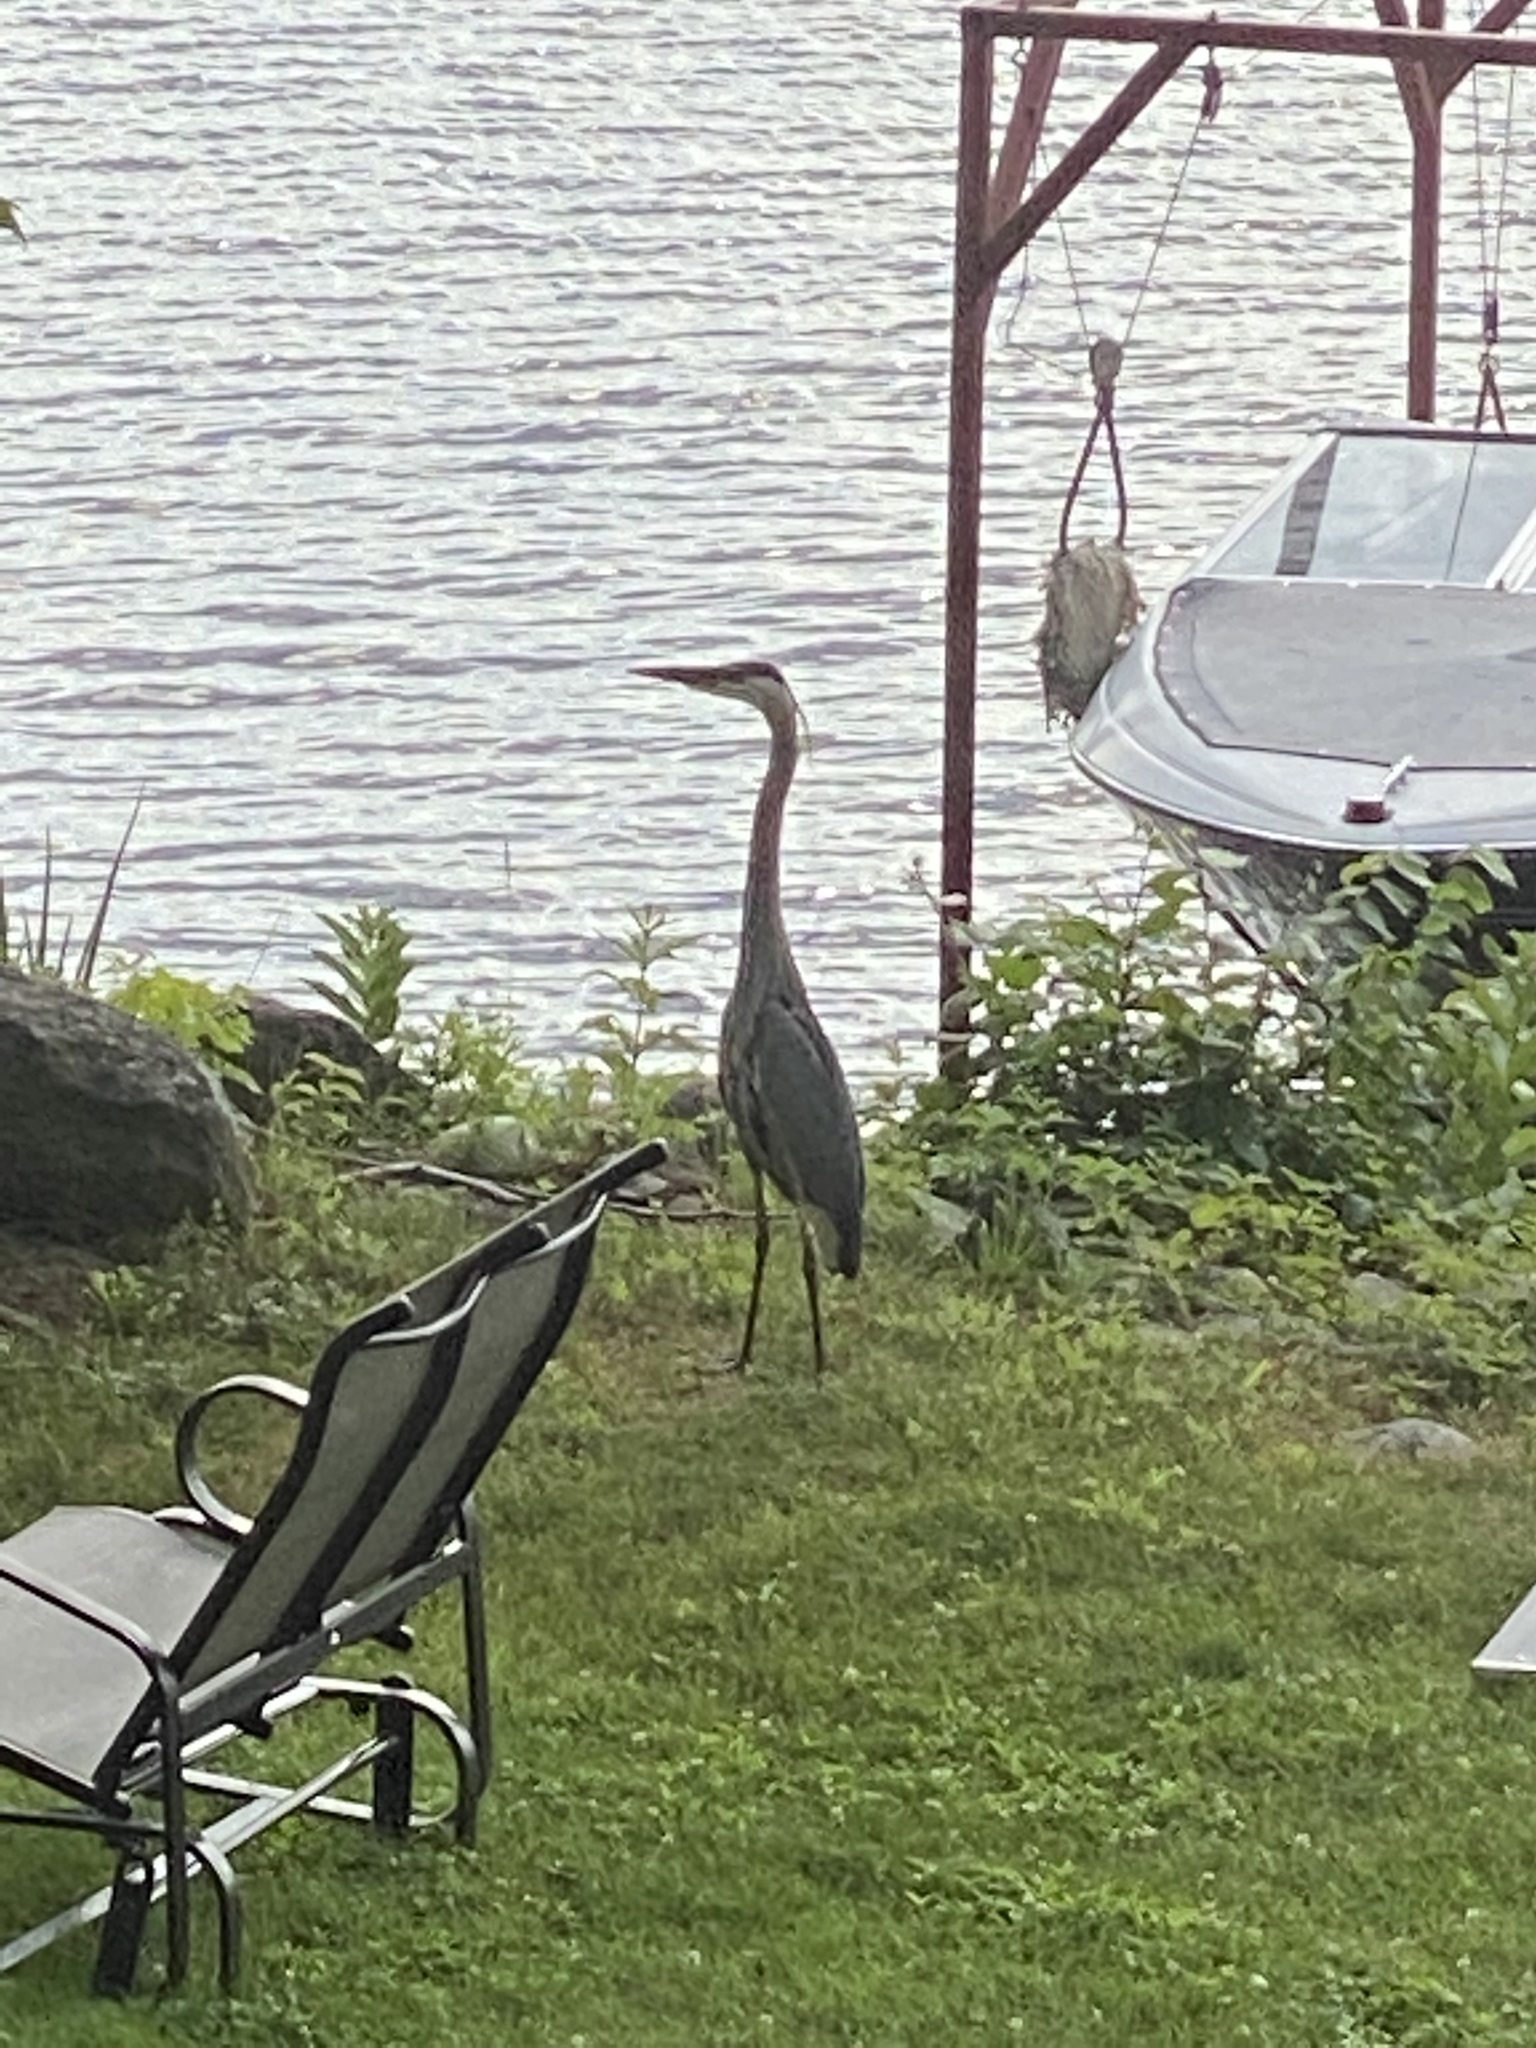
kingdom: Animalia
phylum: Chordata
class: Aves
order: Pelecaniformes
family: Ardeidae
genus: Ardea
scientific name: Ardea herodias
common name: Great blue heron
